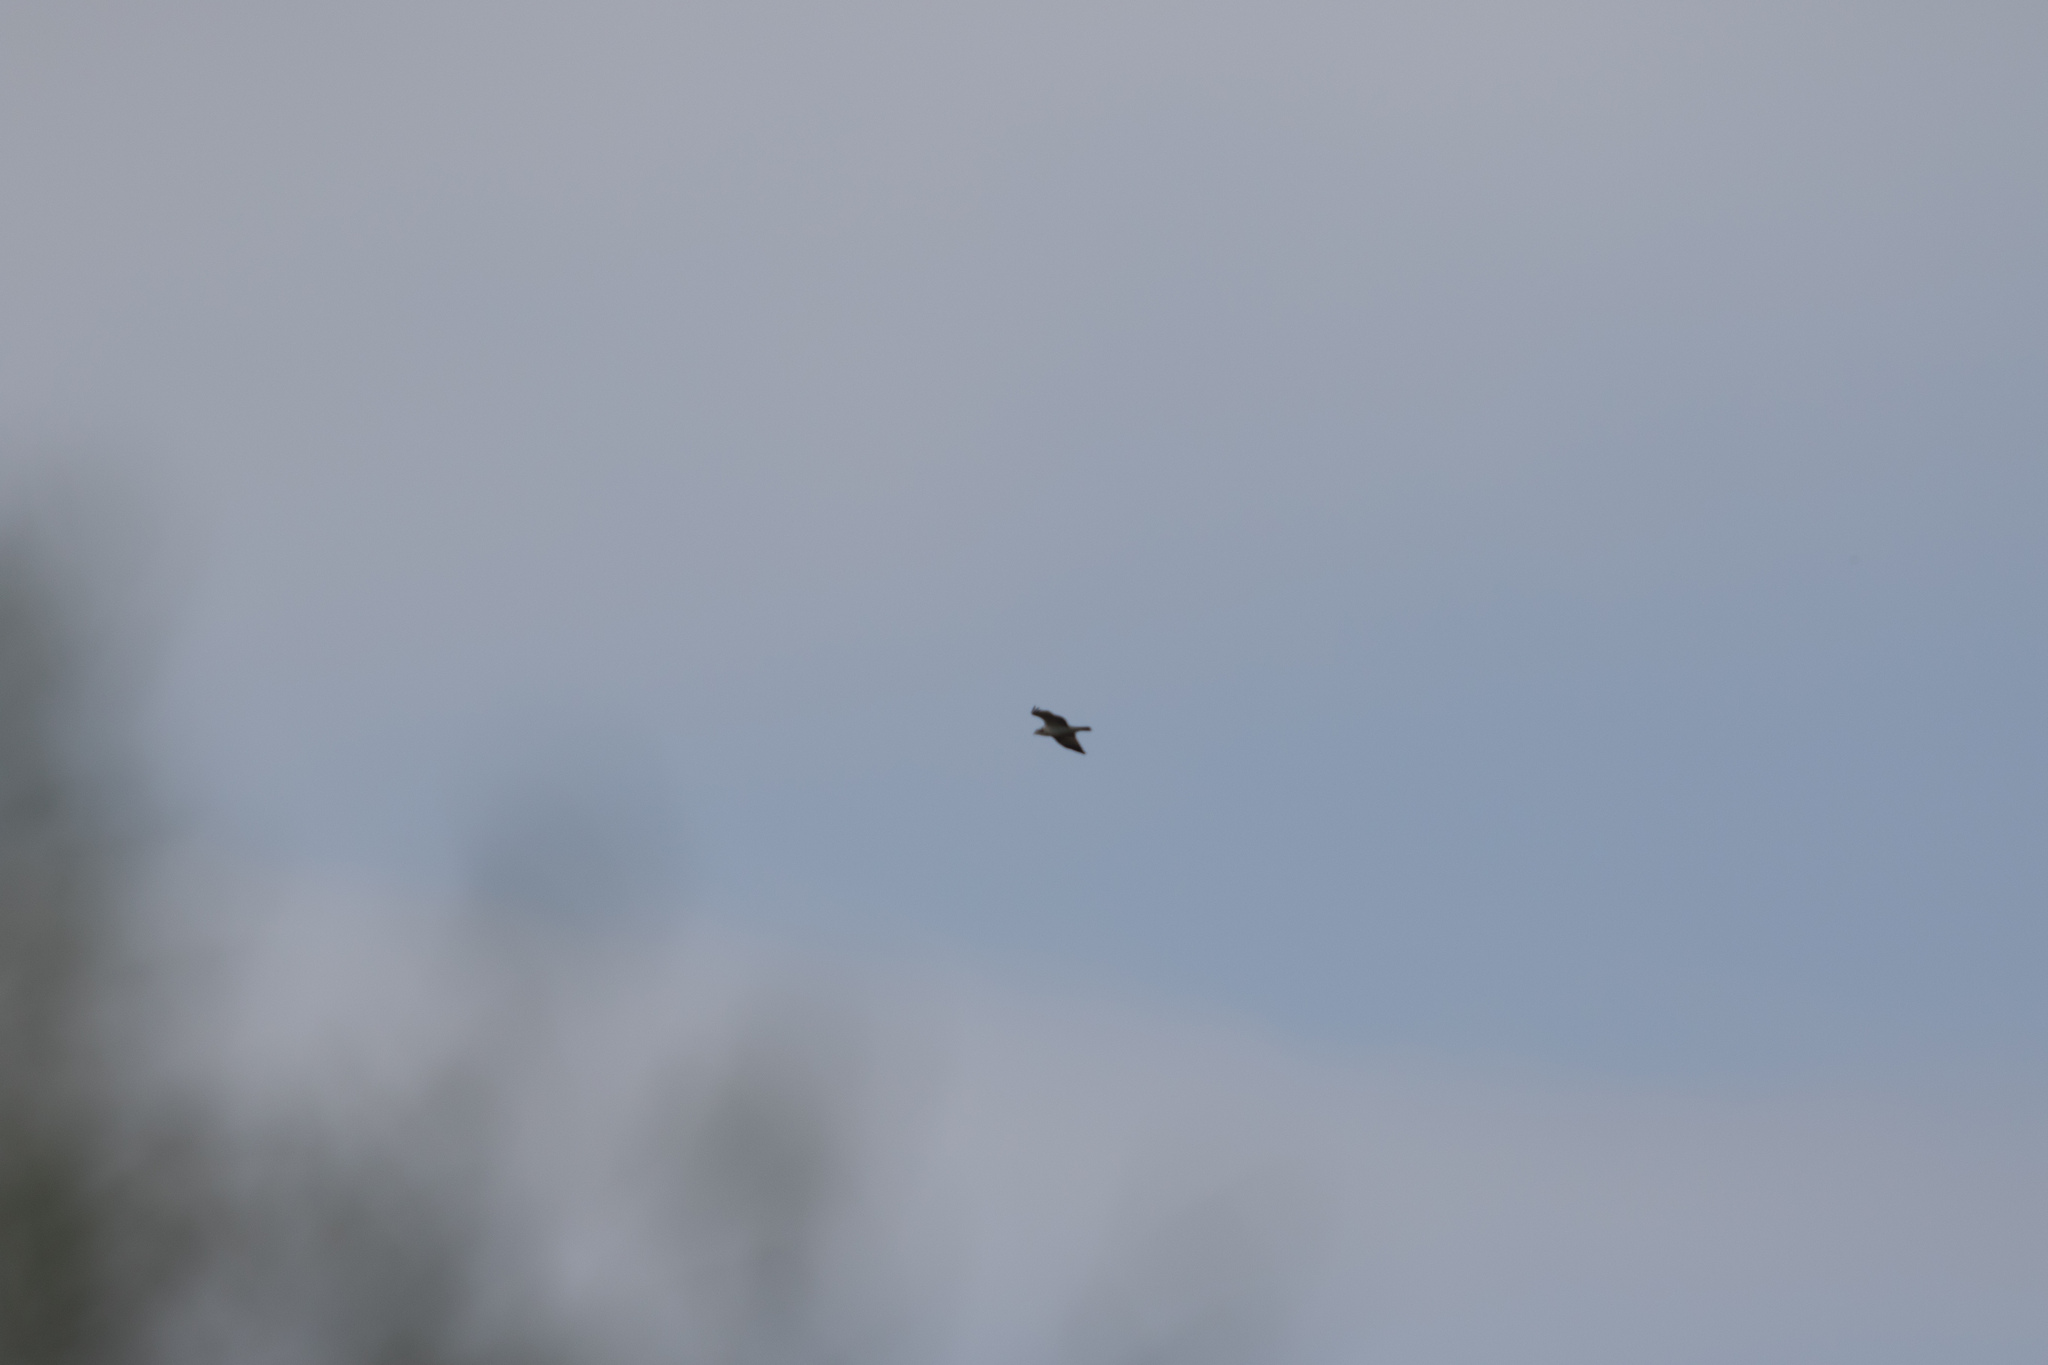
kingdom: Animalia
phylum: Chordata
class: Aves
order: Accipitriformes
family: Pandionidae
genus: Pandion
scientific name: Pandion haliaetus
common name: Osprey
